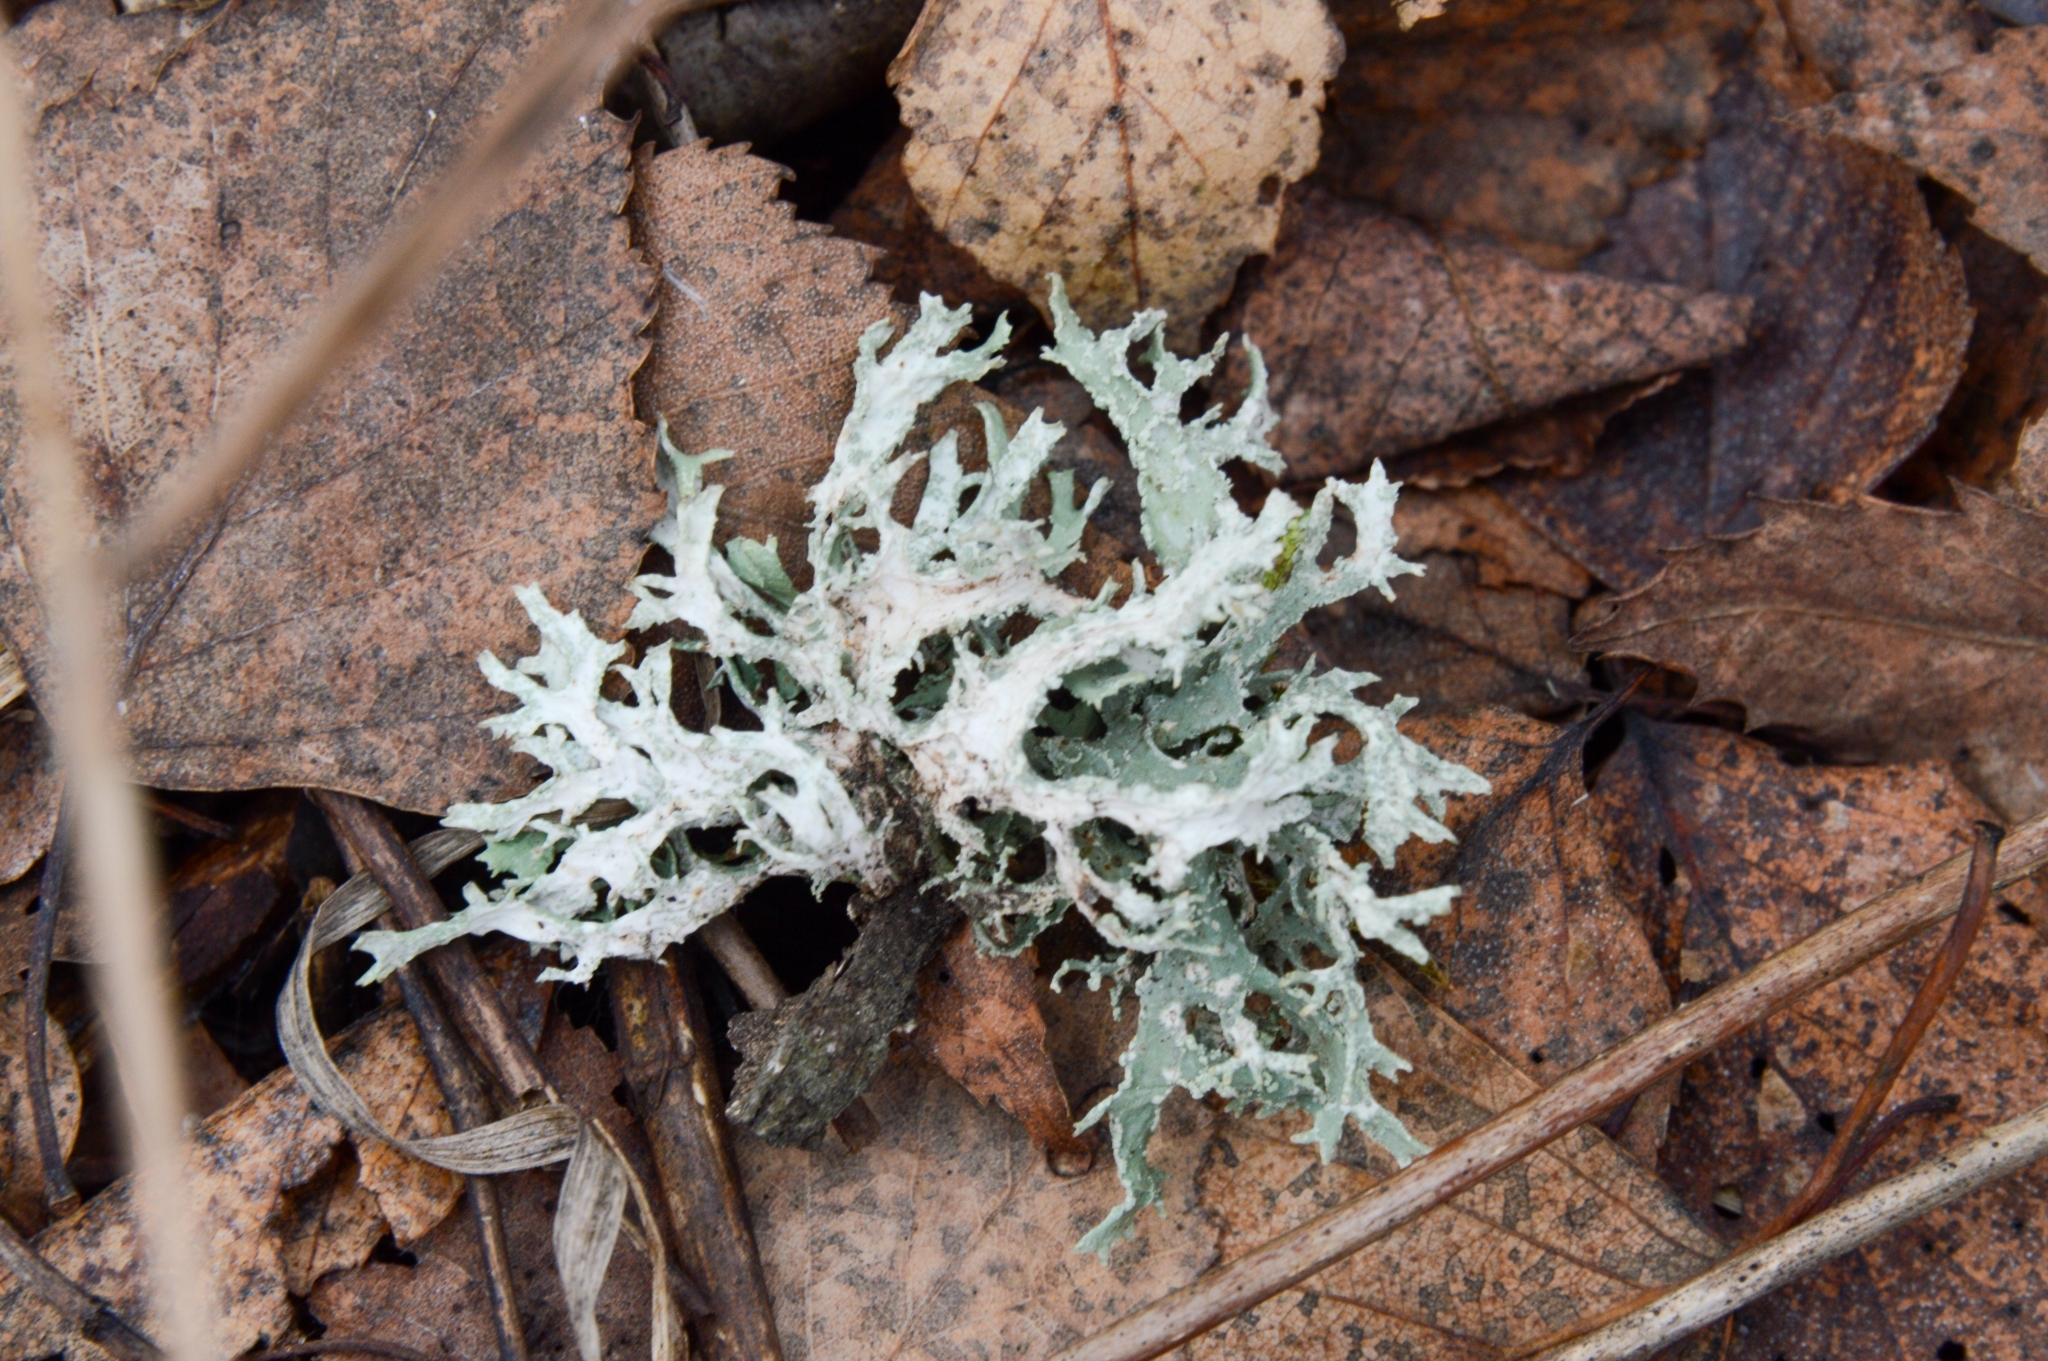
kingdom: Fungi
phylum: Ascomycota
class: Lecanoromycetes
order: Lecanorales
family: Parmeliaceae
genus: Evernia
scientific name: Evernia prunastri
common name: Oak moss
